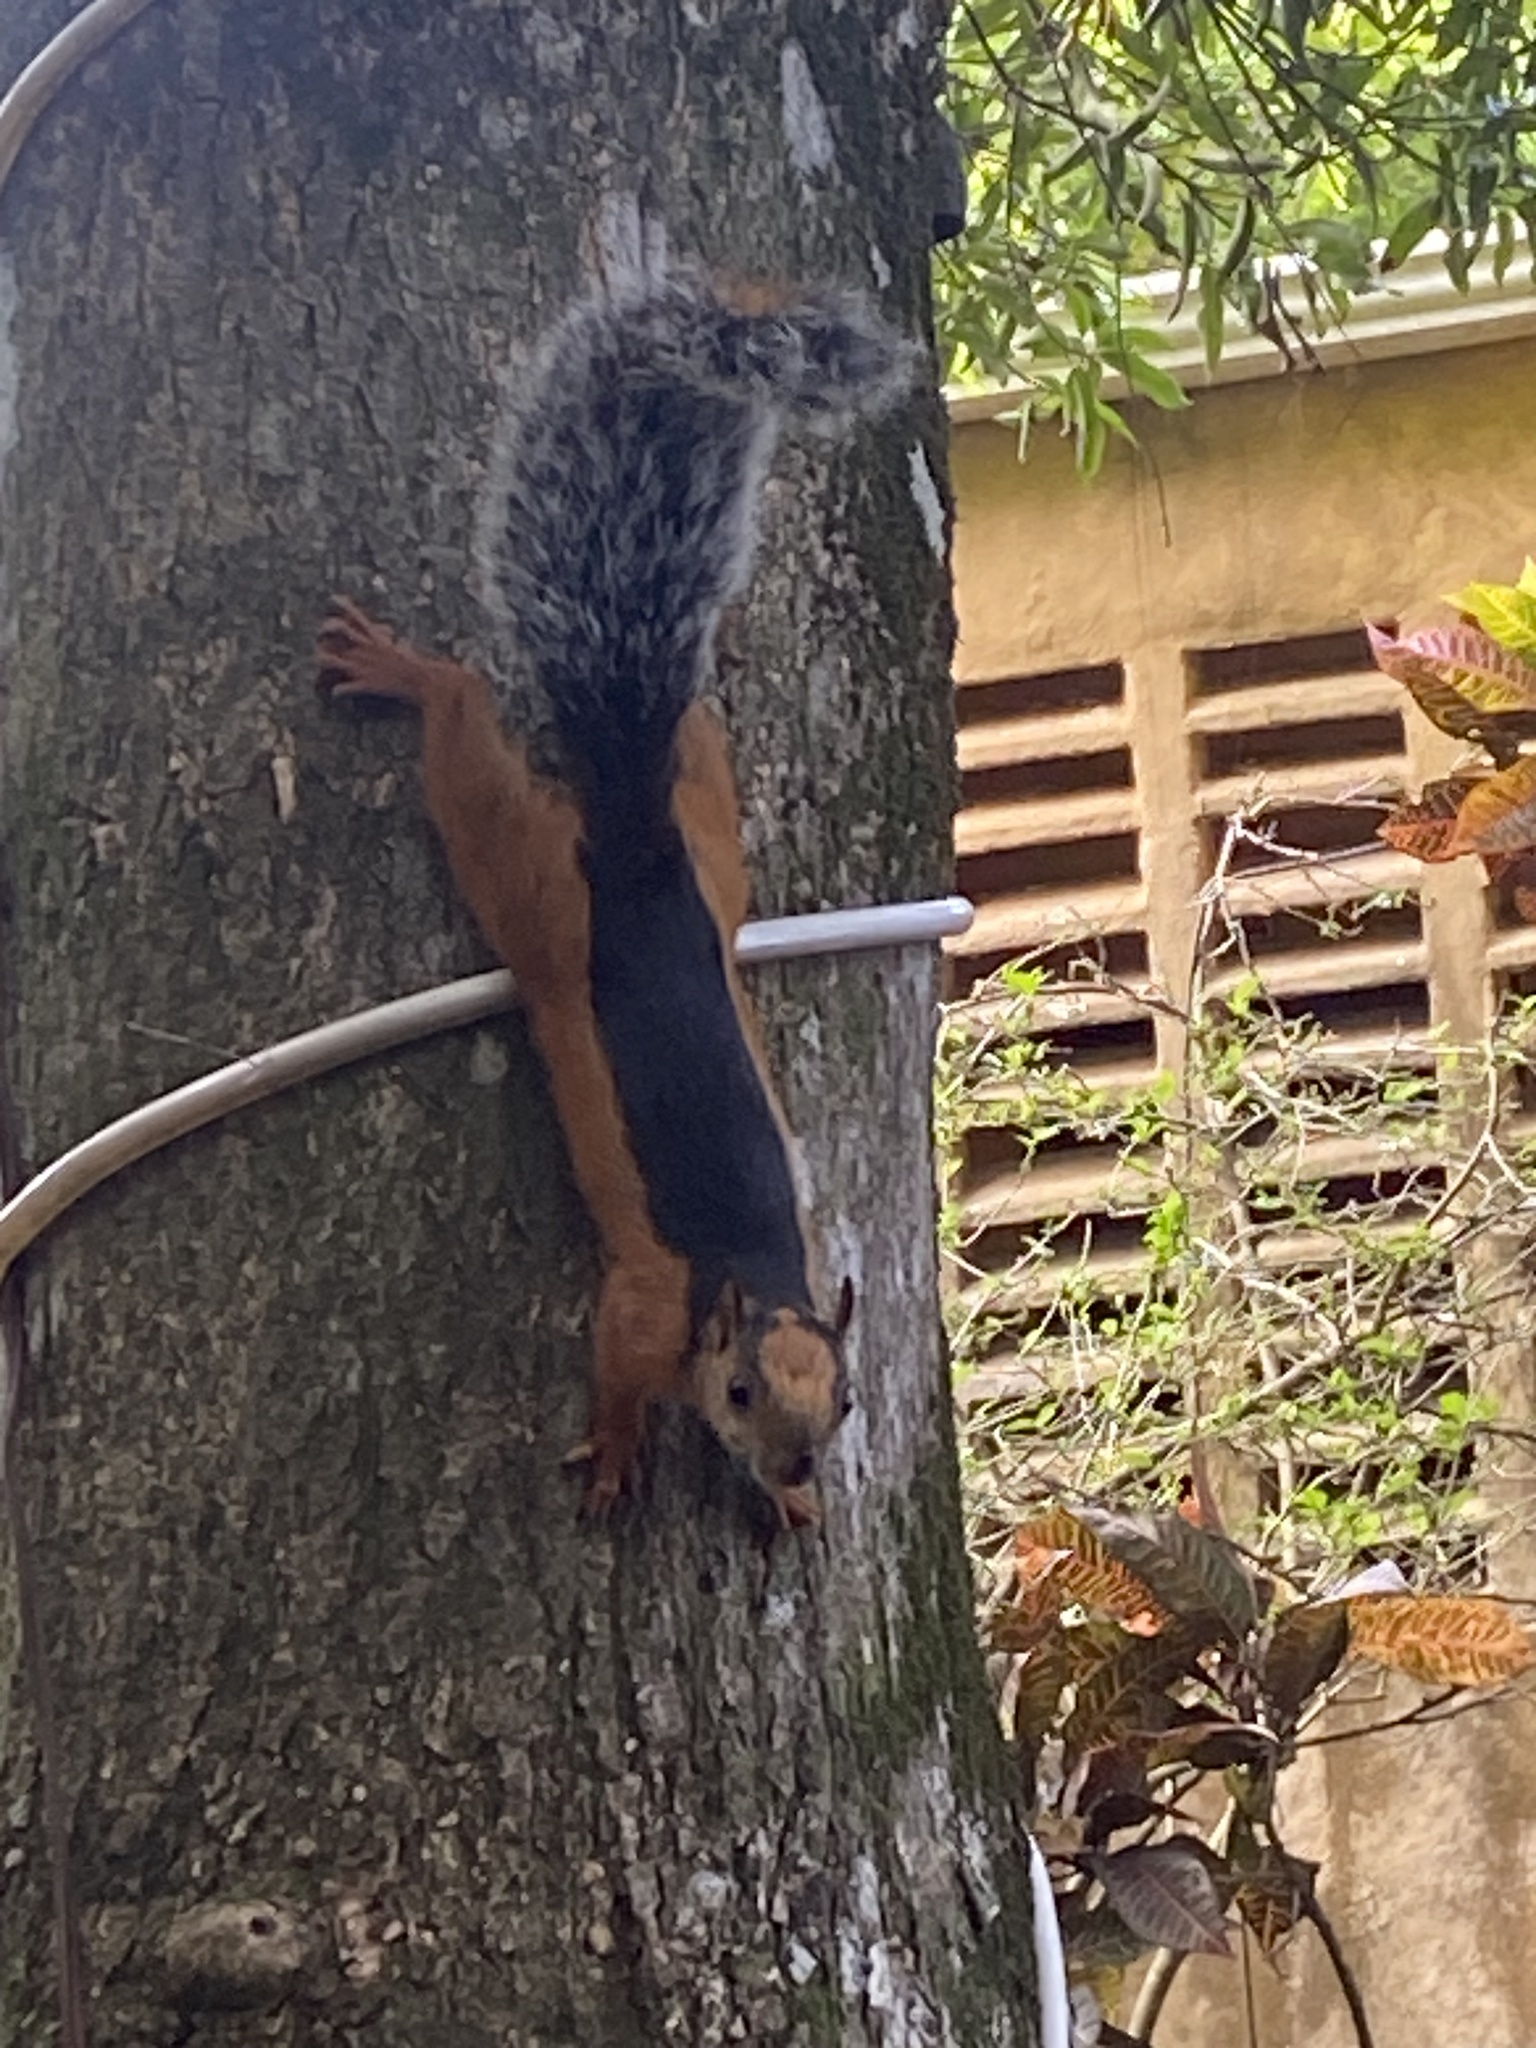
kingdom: Animalia
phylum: Chordata
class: Mammalia
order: Rodentia
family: Sciuridae
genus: Sciurus
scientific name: Sciurus variegatoides
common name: Variegated squirrel
